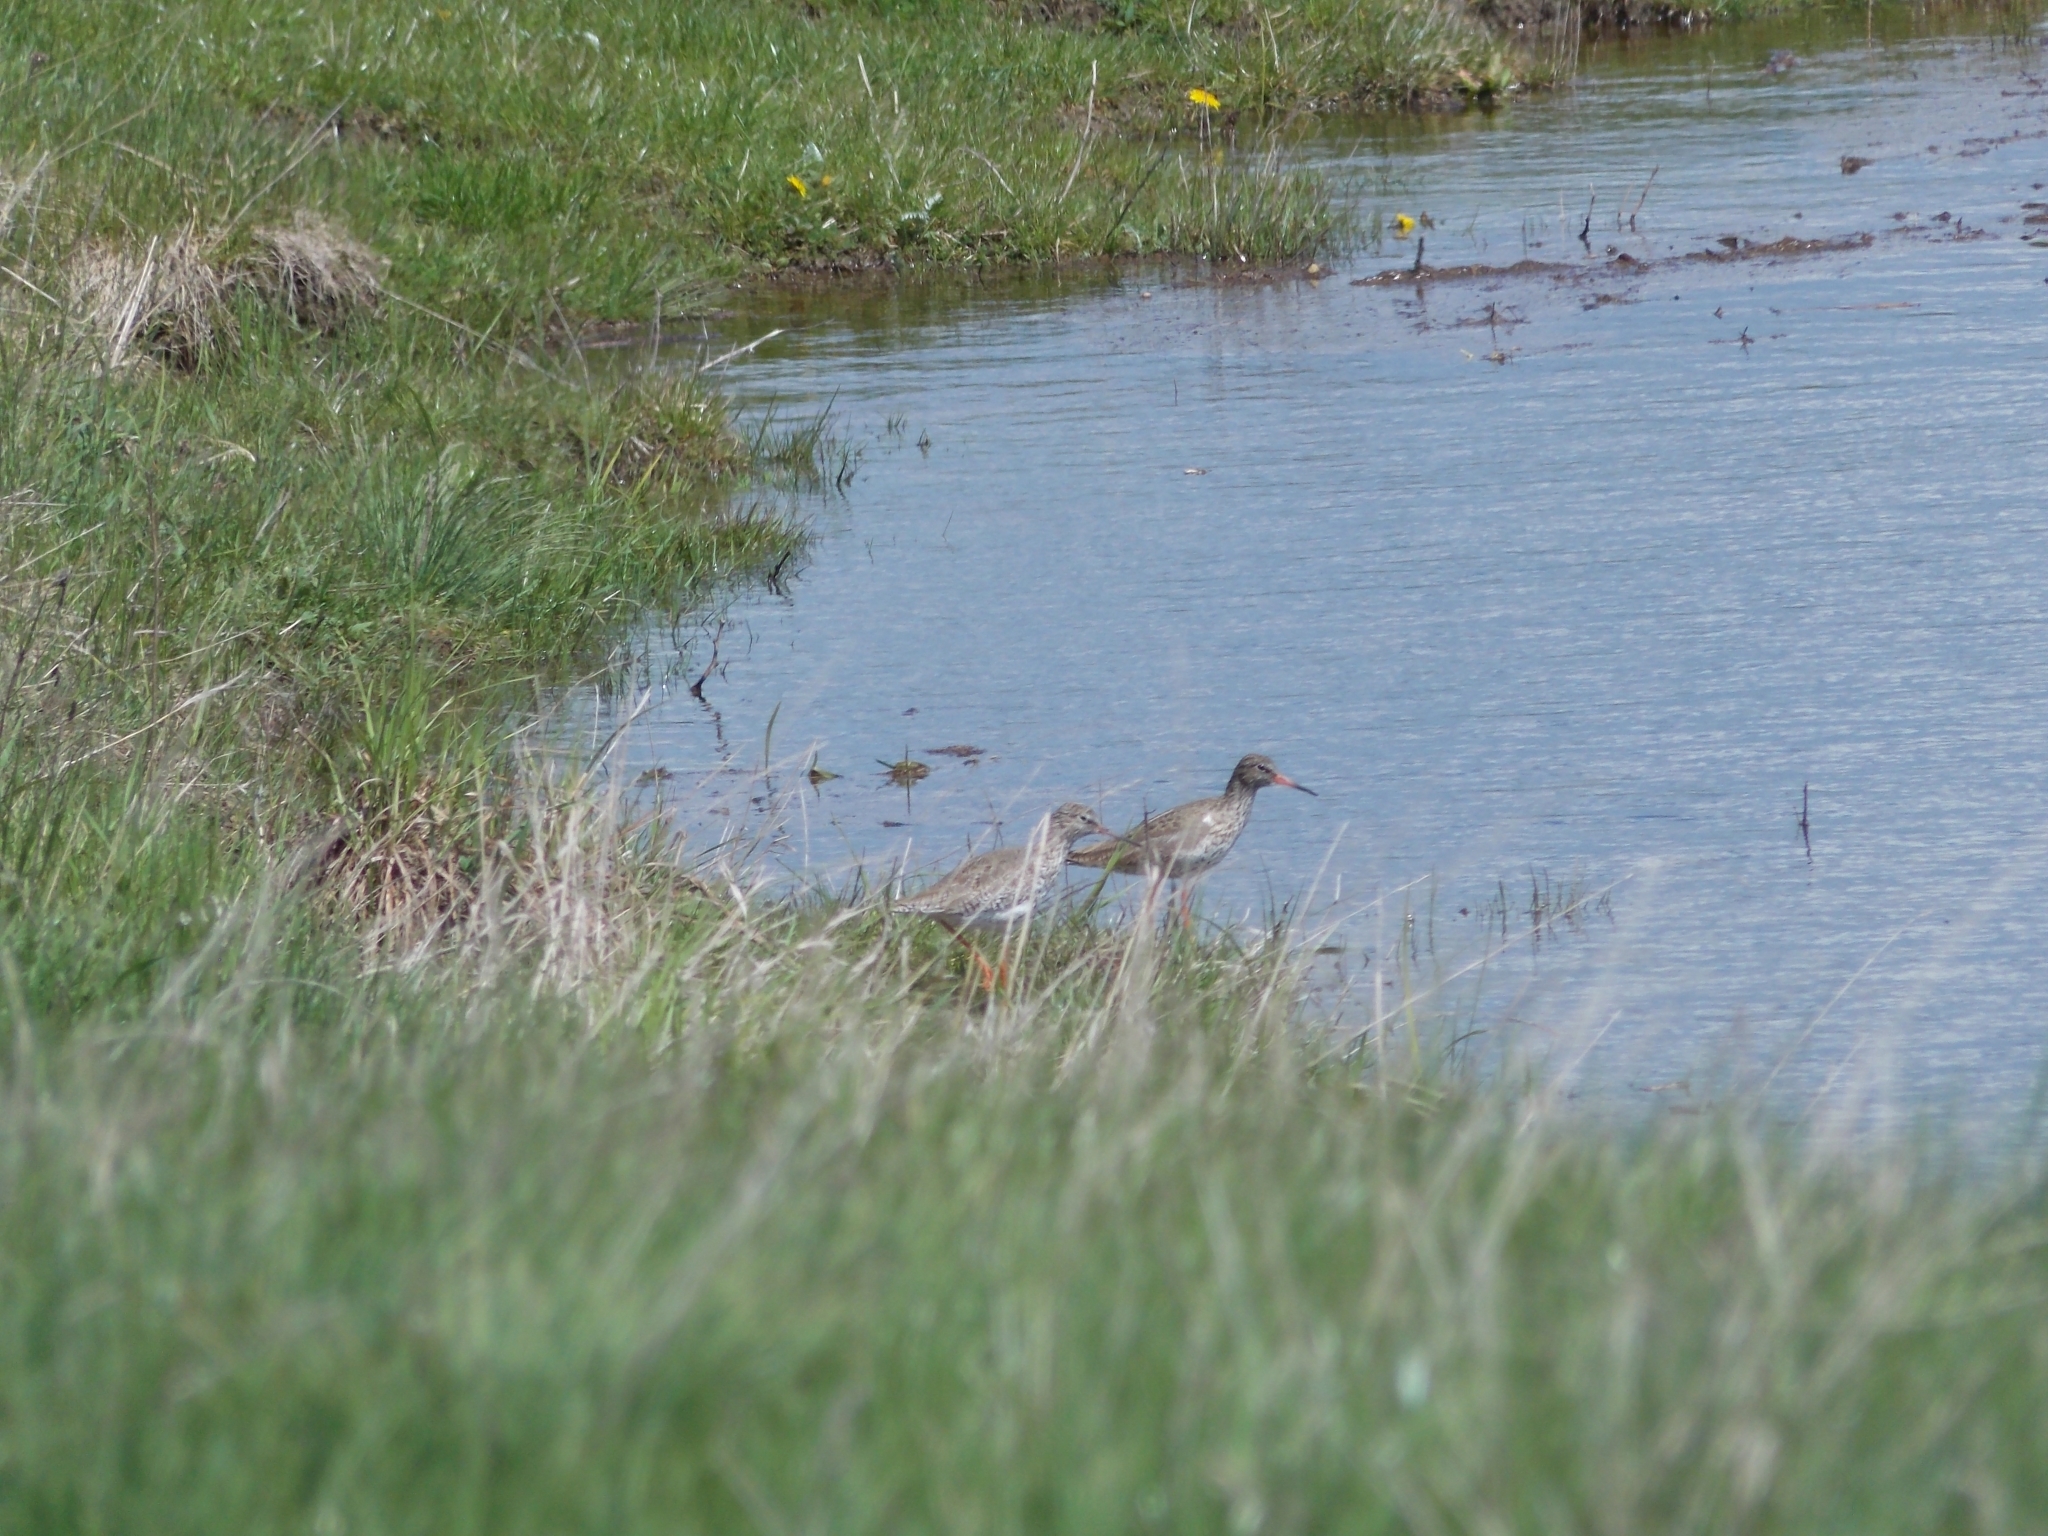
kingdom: Animalia
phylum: Chordata
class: Aves
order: Charadriiformes
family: Scolopacidae
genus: Tringa
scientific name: Tringa totanus
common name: Common redshank
